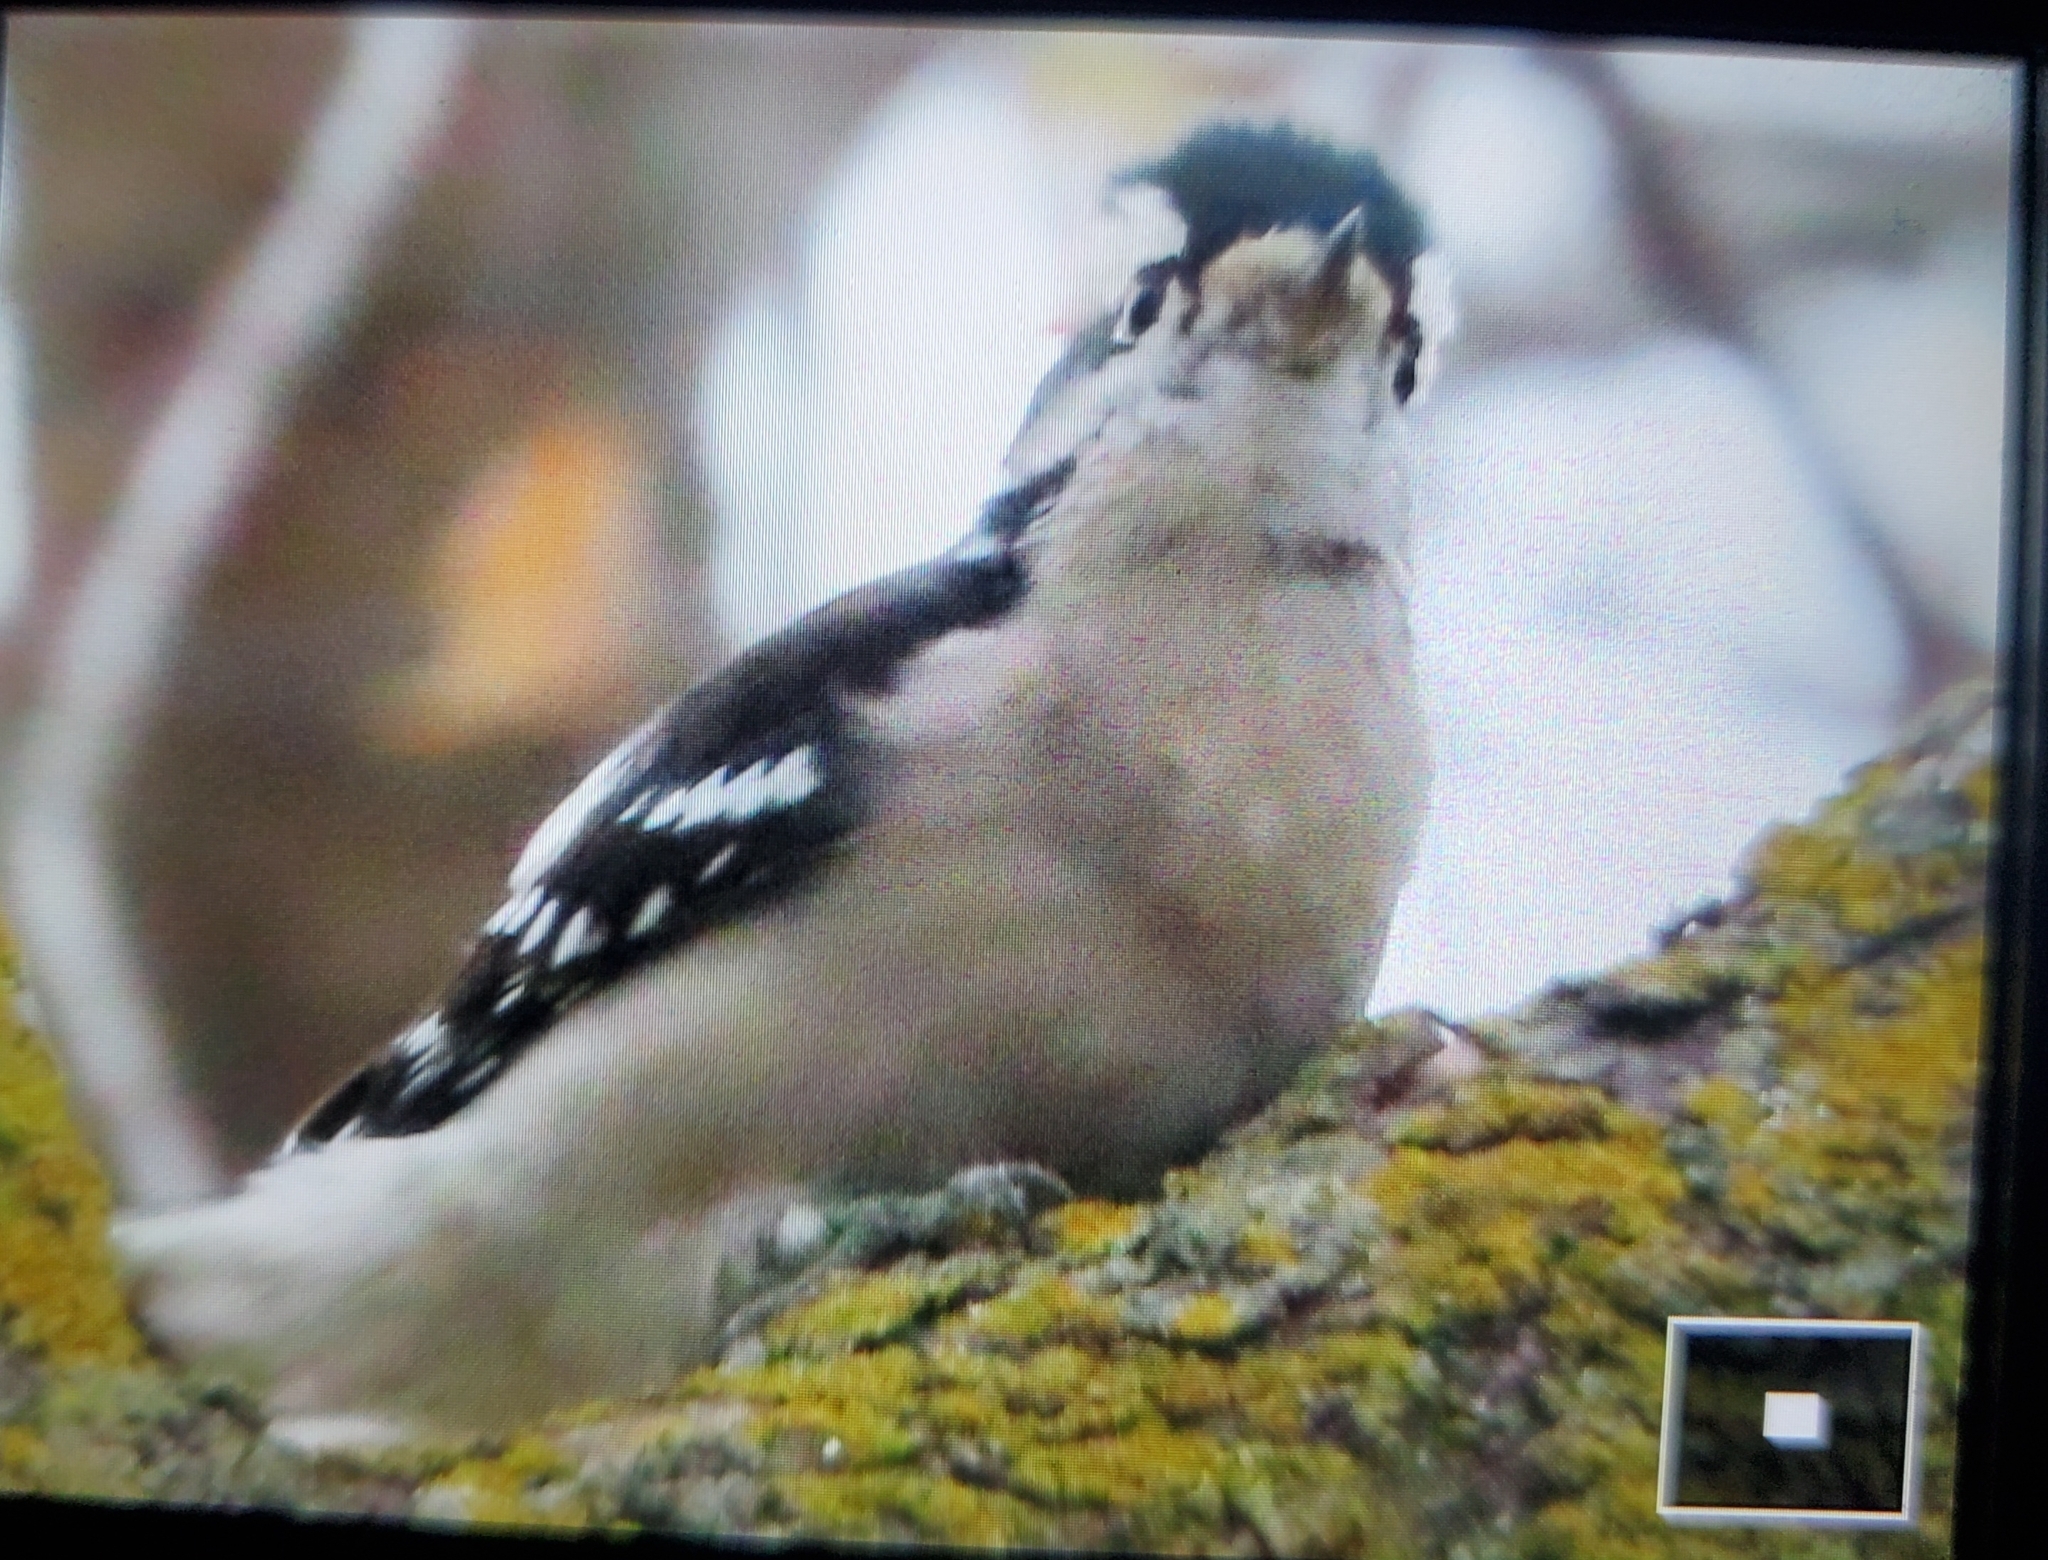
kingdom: Animalia
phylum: Chordata
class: Aves
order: Piciformes
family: Picidae
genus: Dryobates
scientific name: Dryobates pubescens
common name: Downy woodpecker
